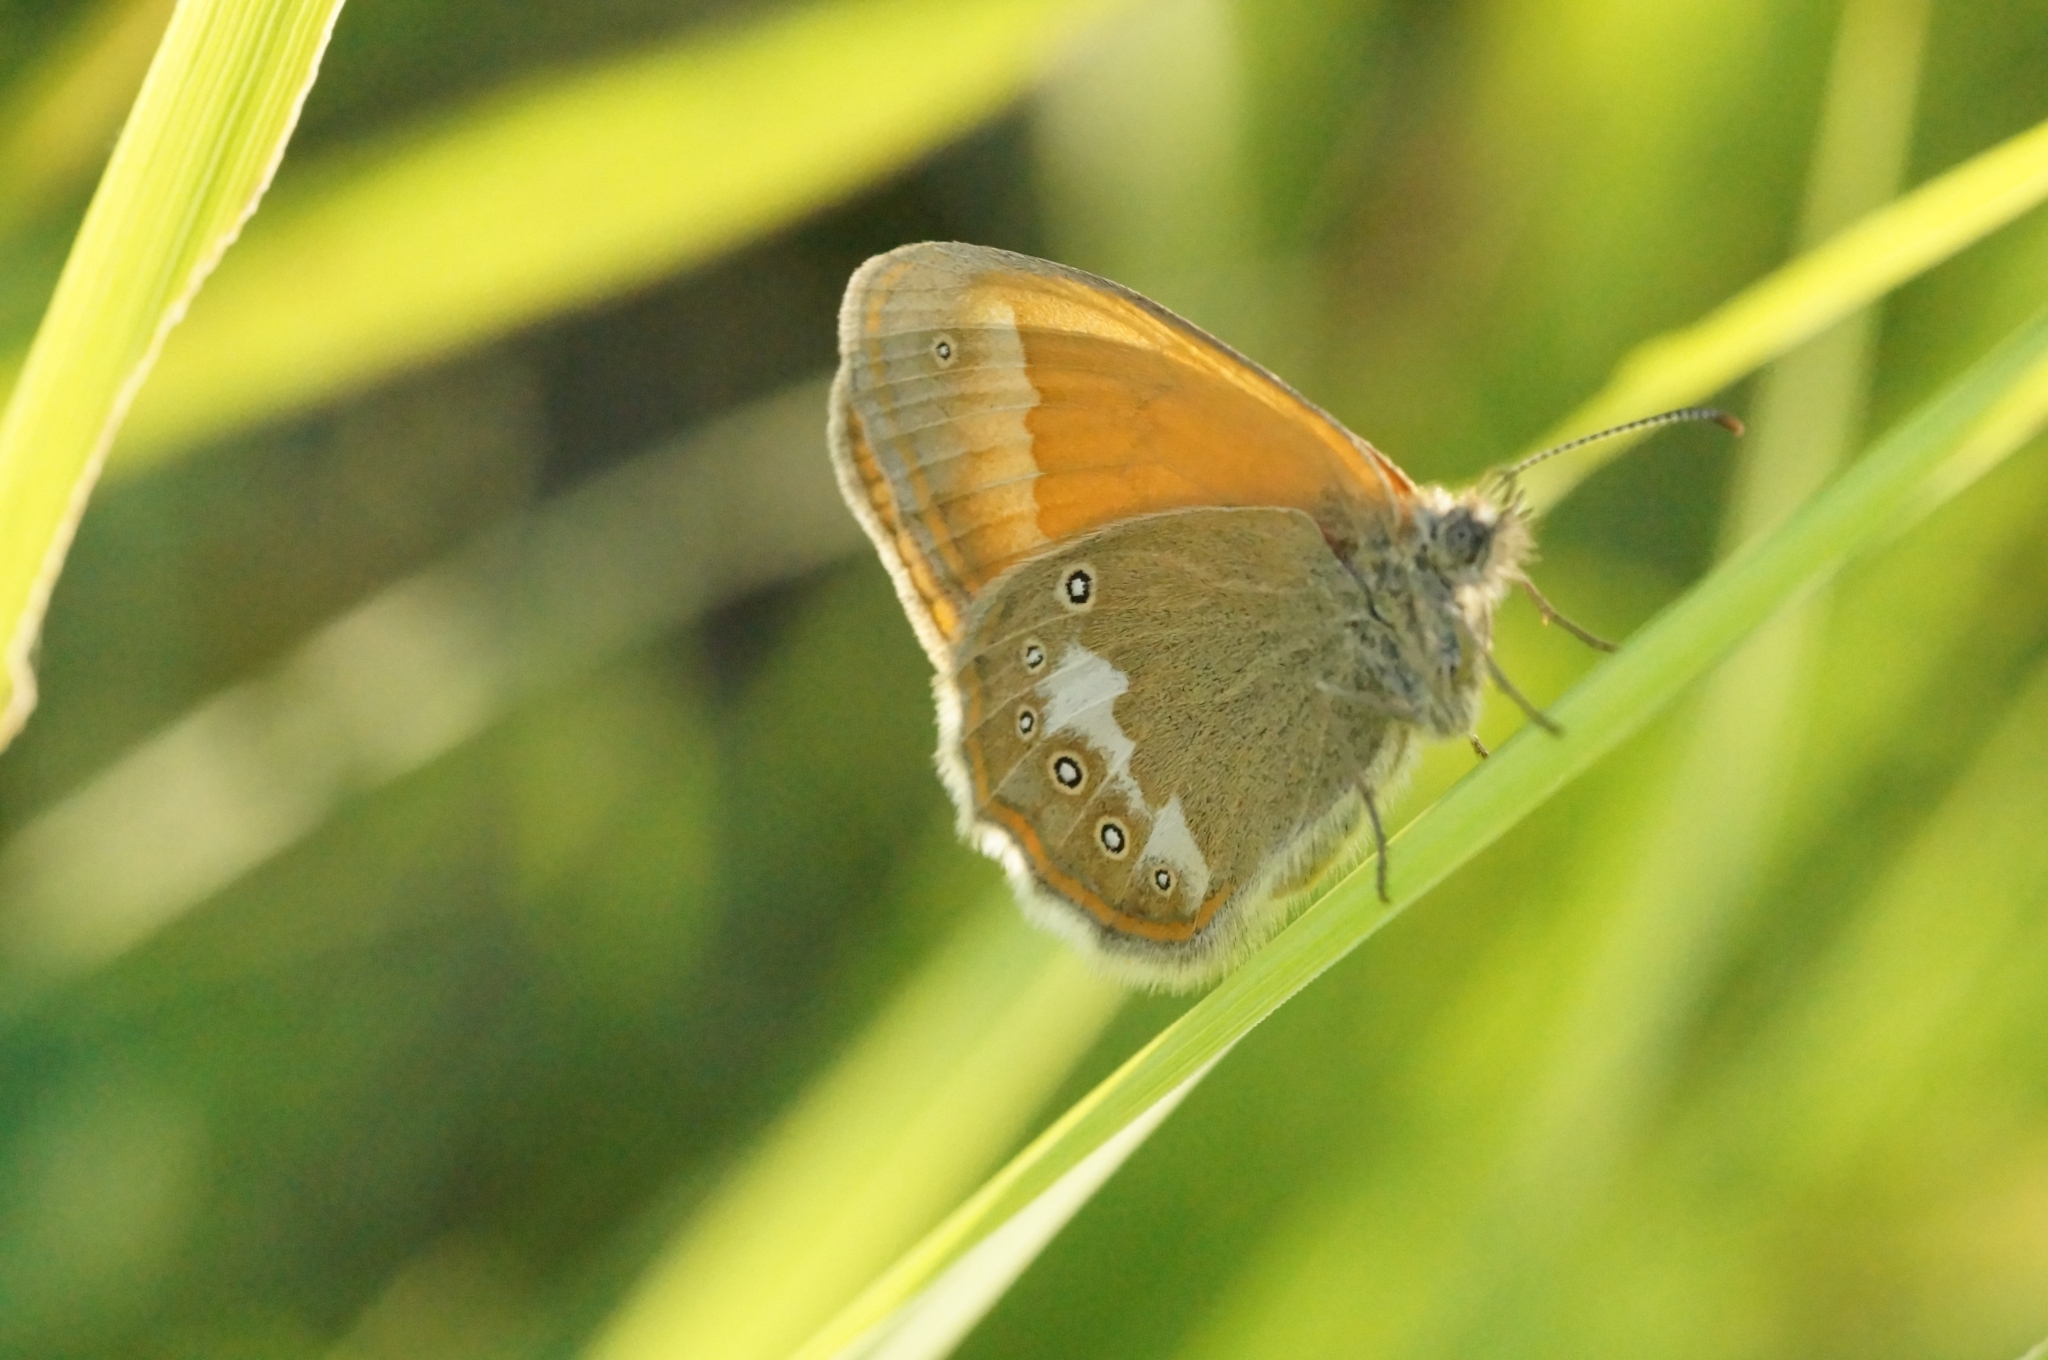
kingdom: Animalia
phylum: Arthropoda
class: Insecta
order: Lepidoptera
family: Nymphalidae
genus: Coenonympha
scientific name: Coenonympha iphis
